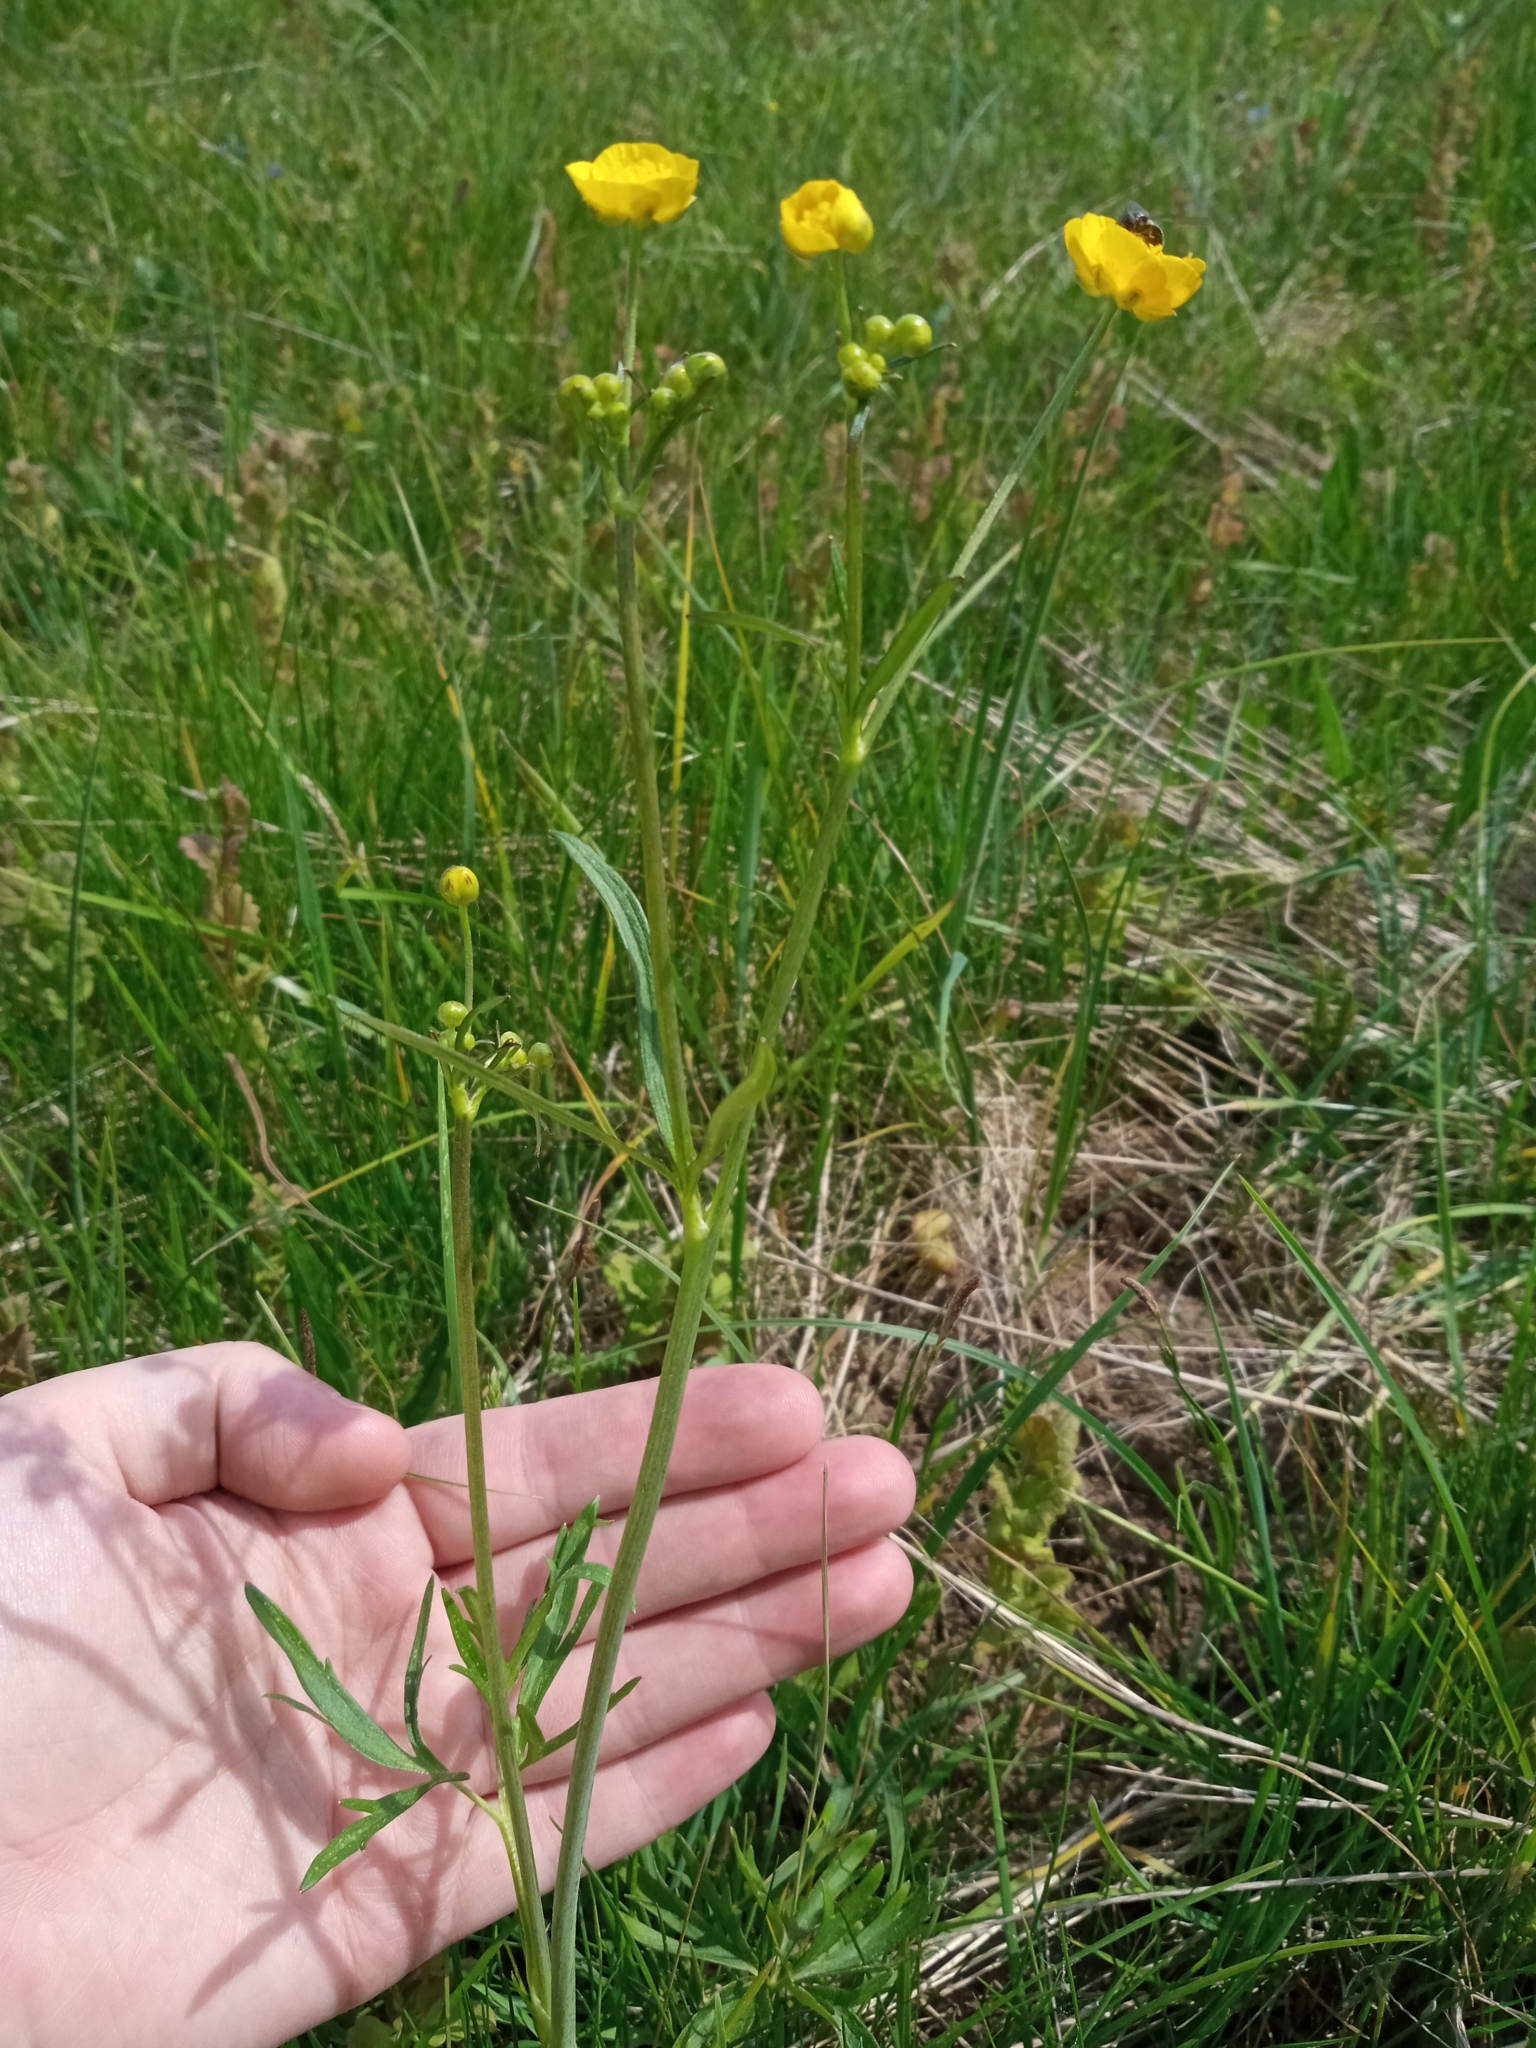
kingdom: Plantae
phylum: Tracheophyta
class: Magnoliopsida
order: Ranunculales
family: Ranunculaceae
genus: Ranunculus
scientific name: Ranunculus acris
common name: Meadow buttercup
